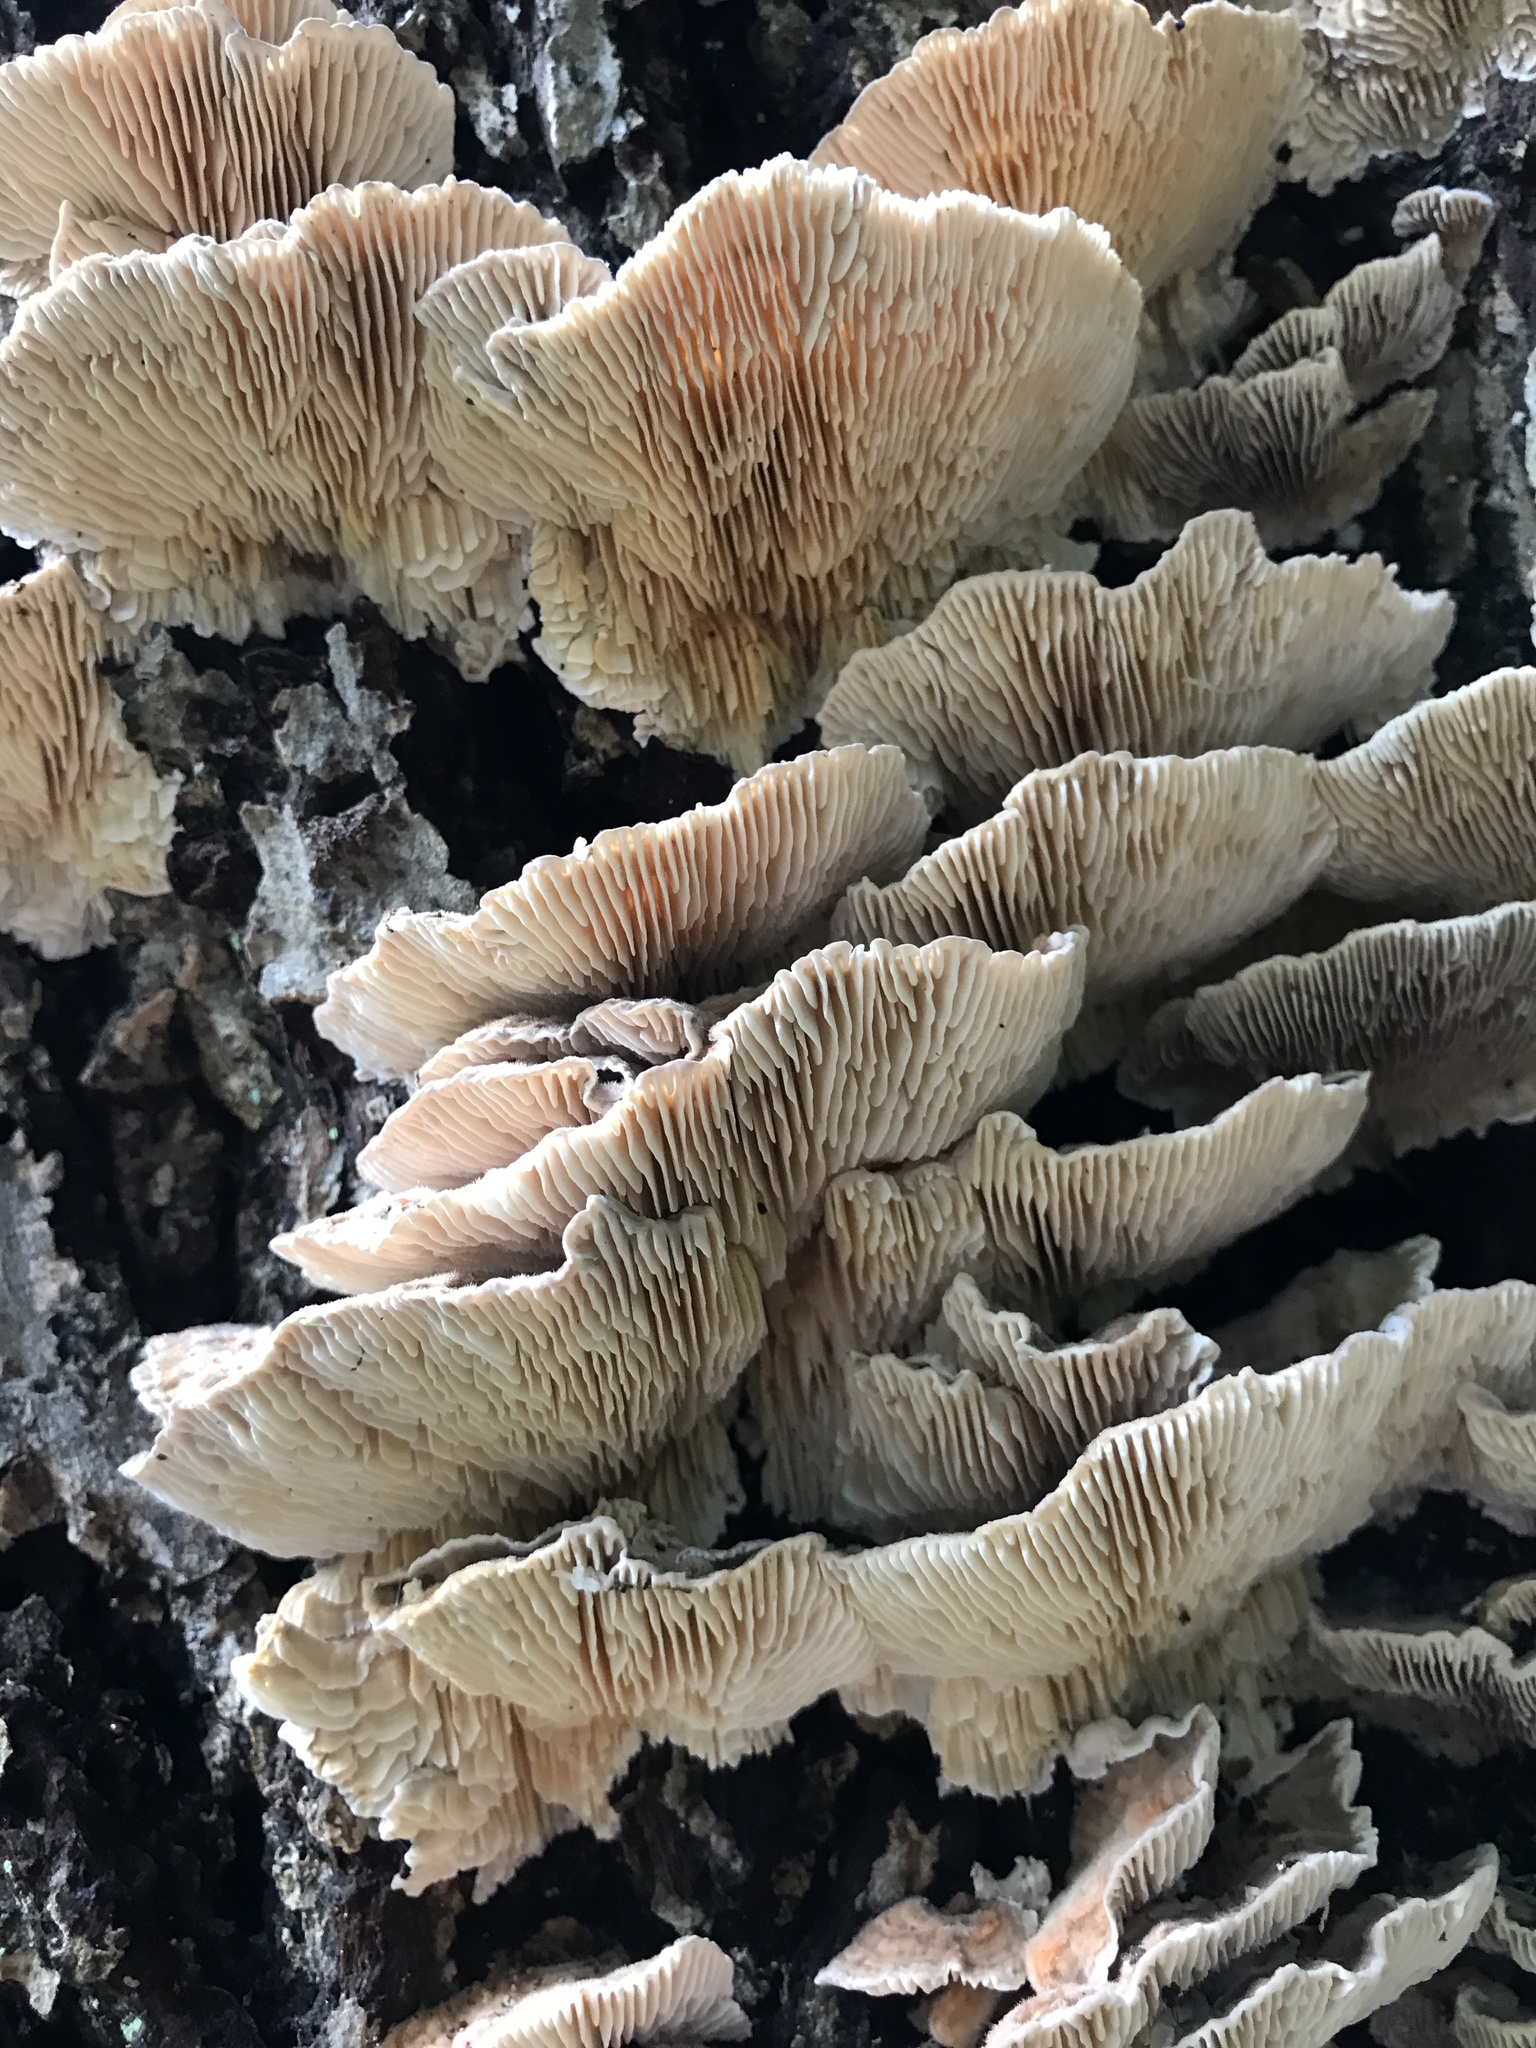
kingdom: Fungi
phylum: Basidiomycota
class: Agaricomycetes
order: Polyporales
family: Polyporaceae
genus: Lenzites
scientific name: Lenzites betulinus
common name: Birch mazegill
